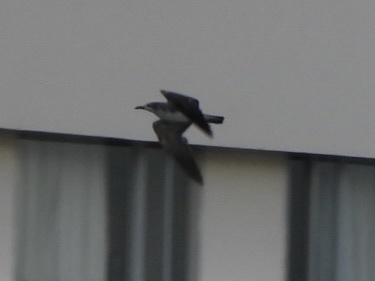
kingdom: Animalia
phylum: Chordata
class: Aves
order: Charadriiformes
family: Laridae
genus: Leucophaeus
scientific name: Leucophaeus atricilla
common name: Laughing gull
